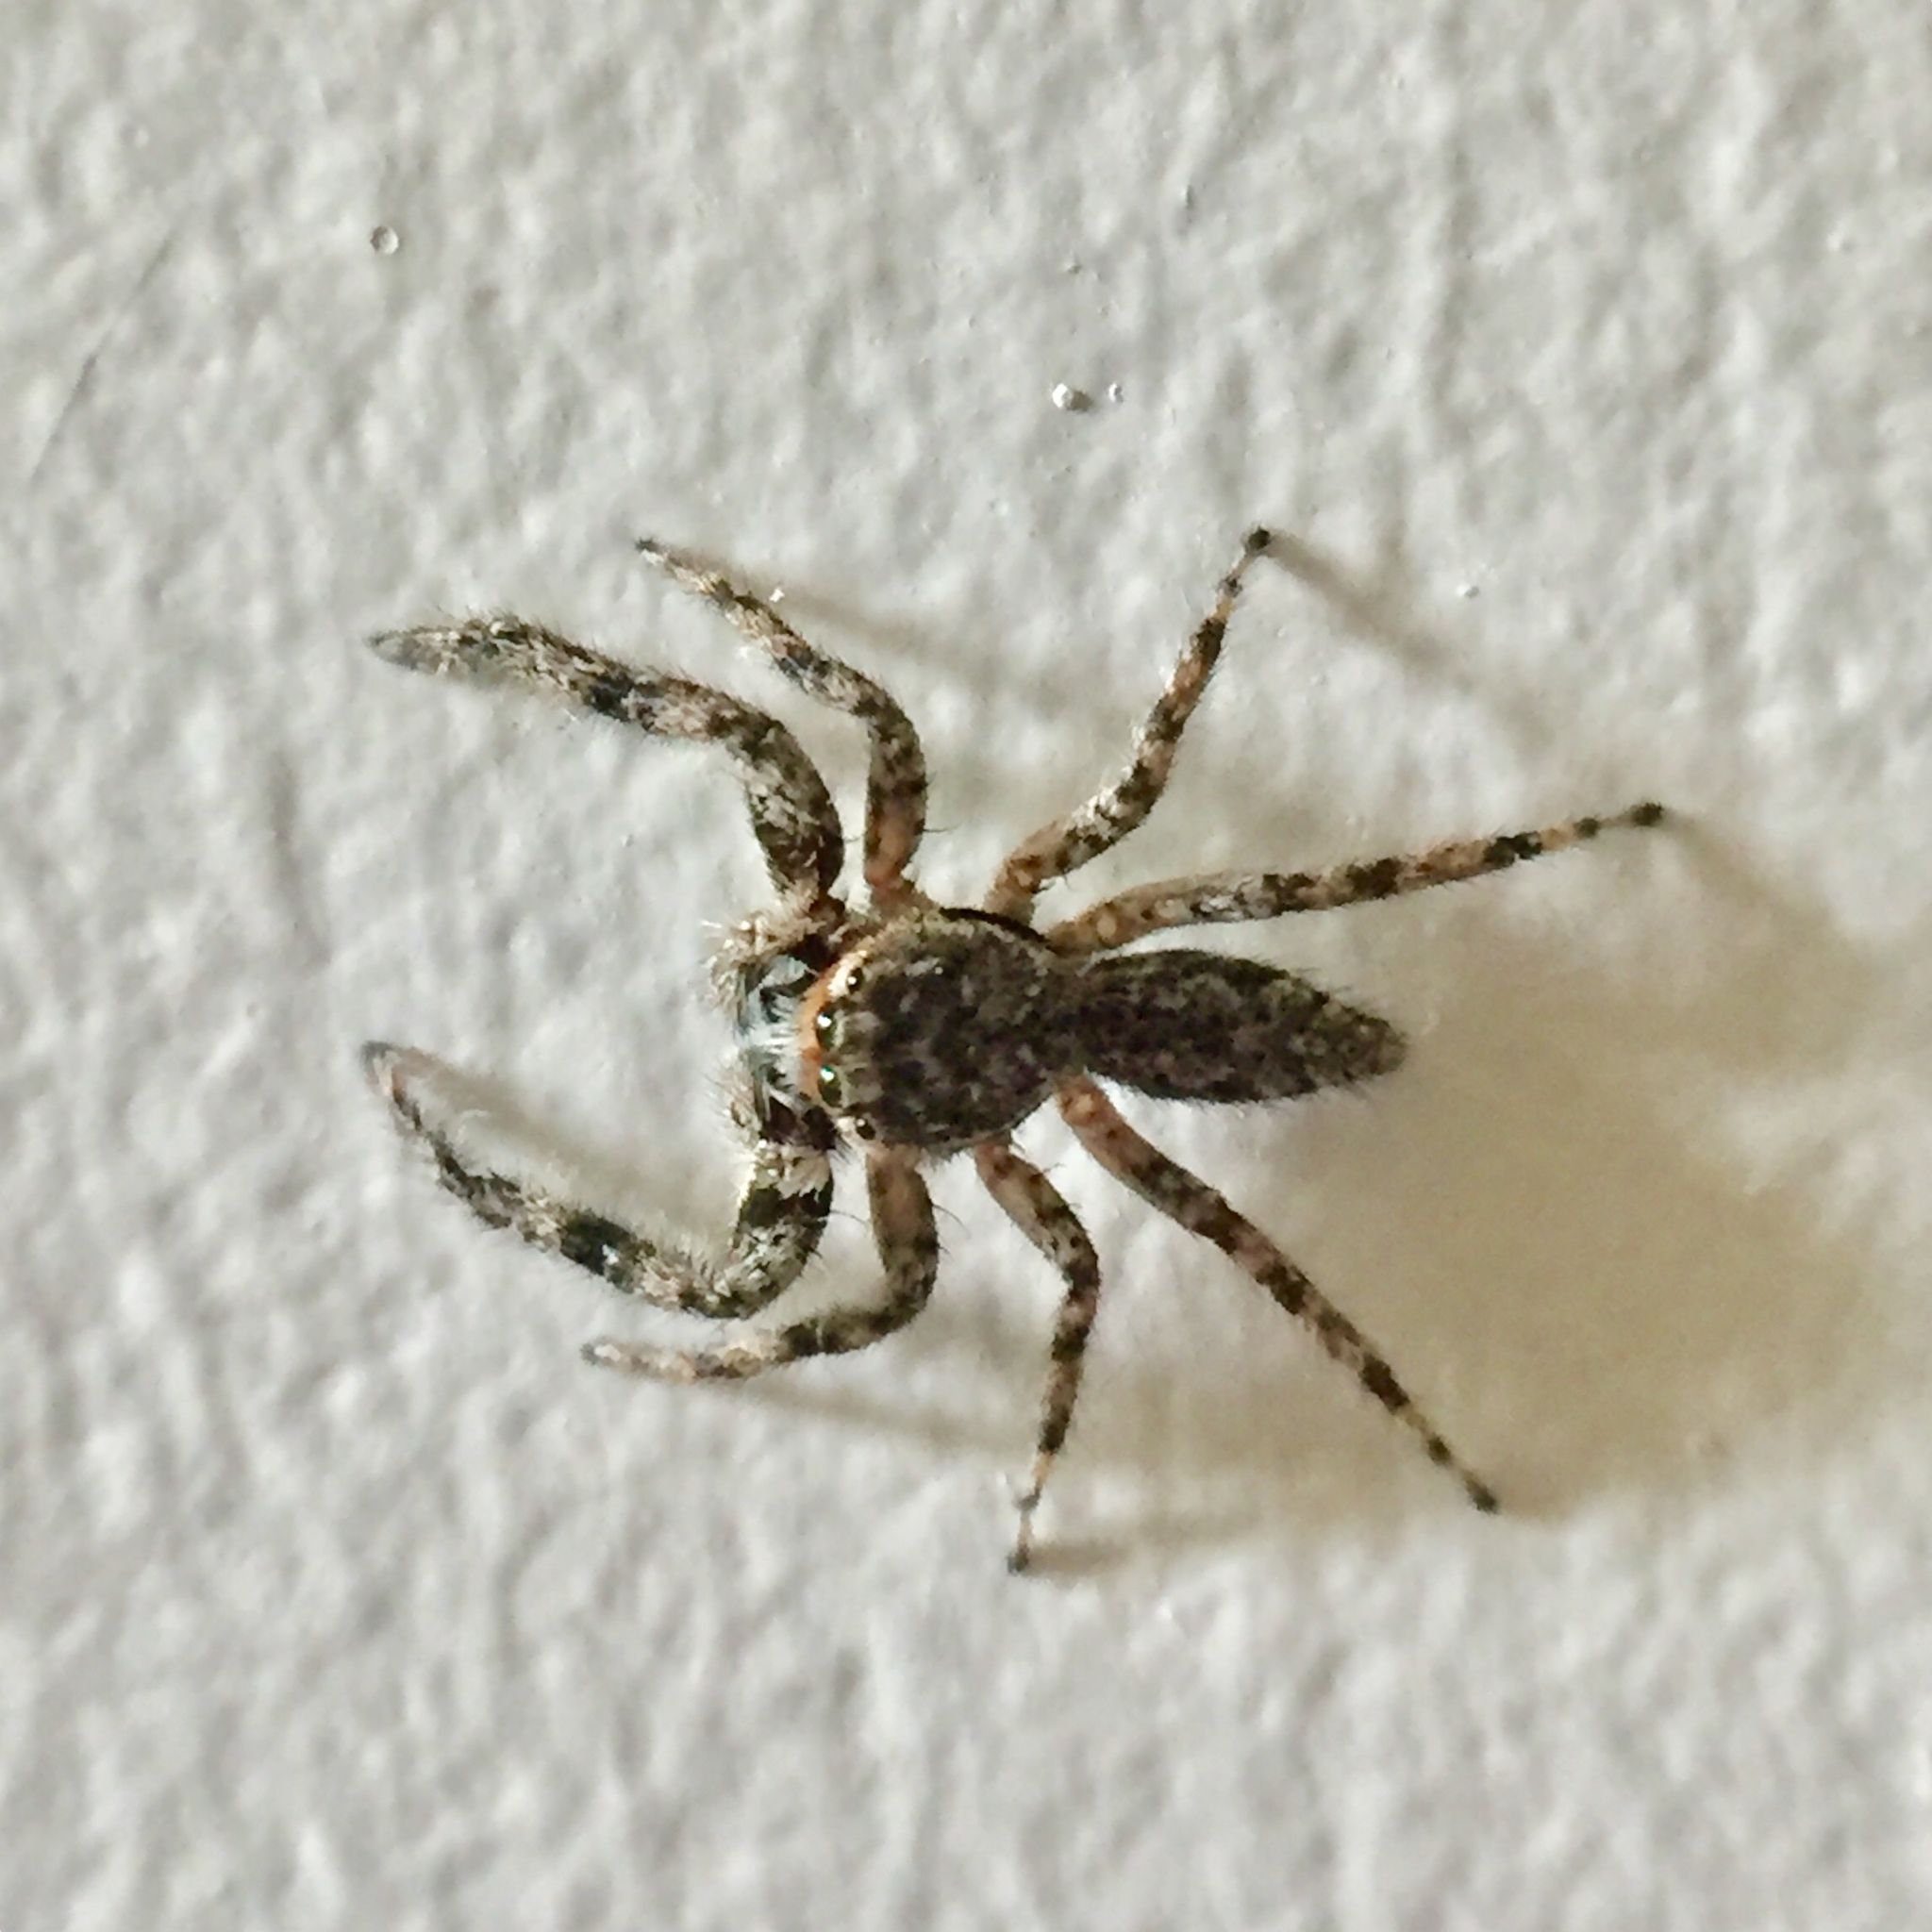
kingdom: Animalia
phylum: Arthropoda
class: Arachnida
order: Araneae
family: Salticidae
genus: Platycryptus
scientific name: Platycryptus undatus
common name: Tan jumping spider
